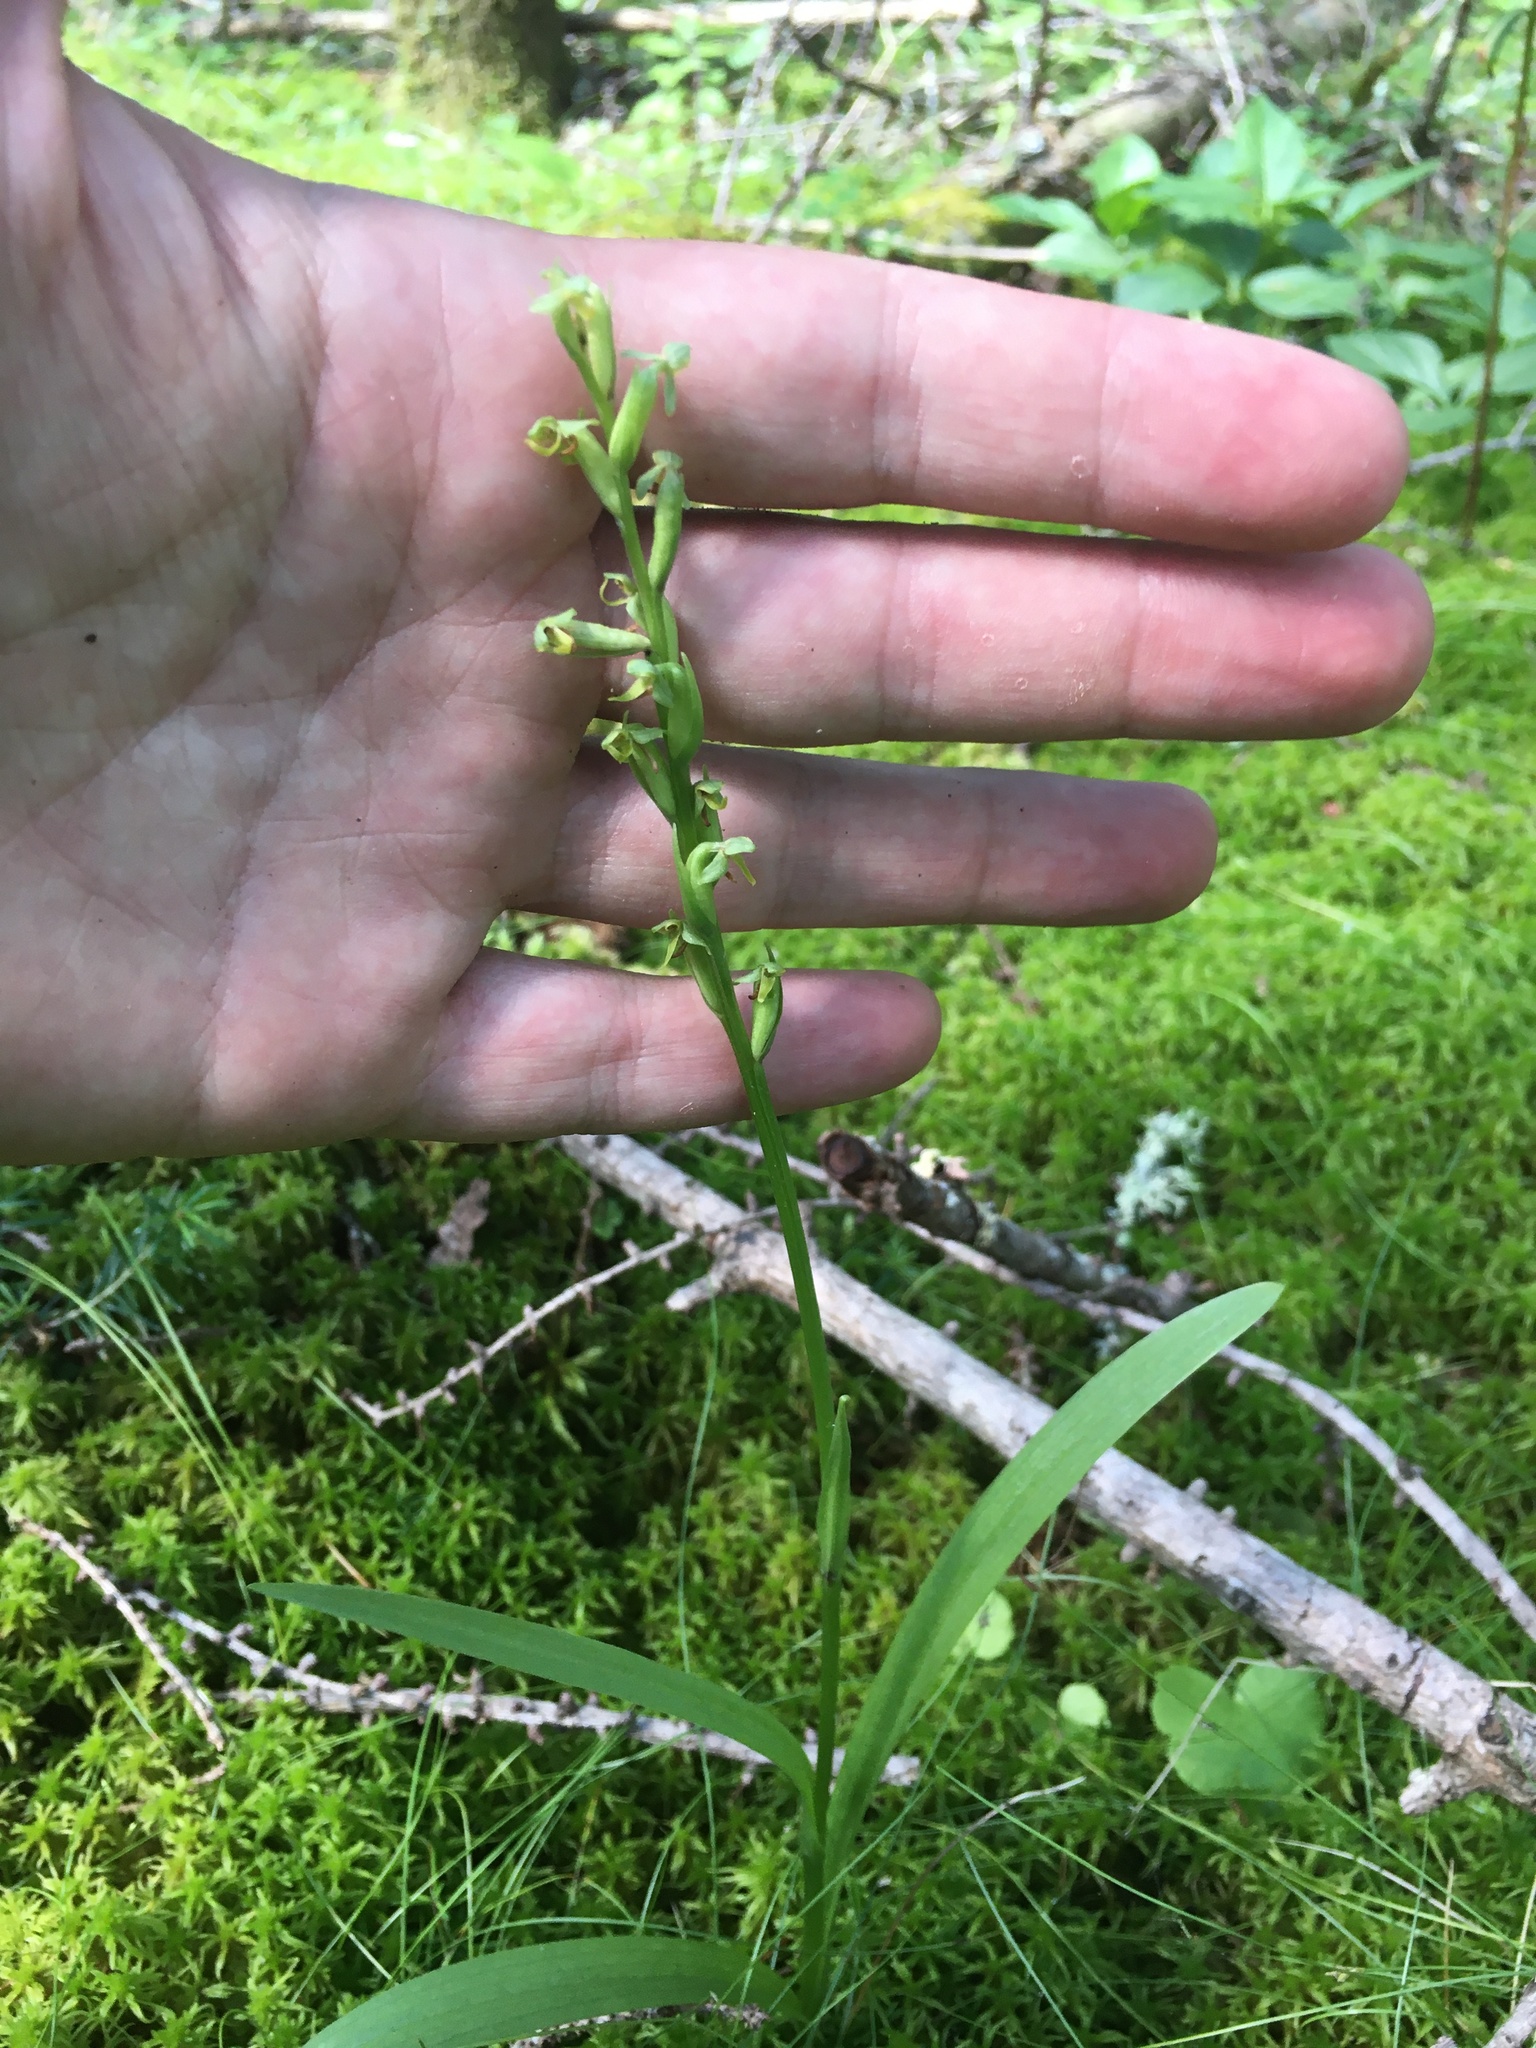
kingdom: Plantae
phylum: Tracheophyta
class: Liliopsida
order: Asparagales
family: Orchidaceae
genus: Platanthera
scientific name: Platanthera aquilonis
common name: Northern green orchid
